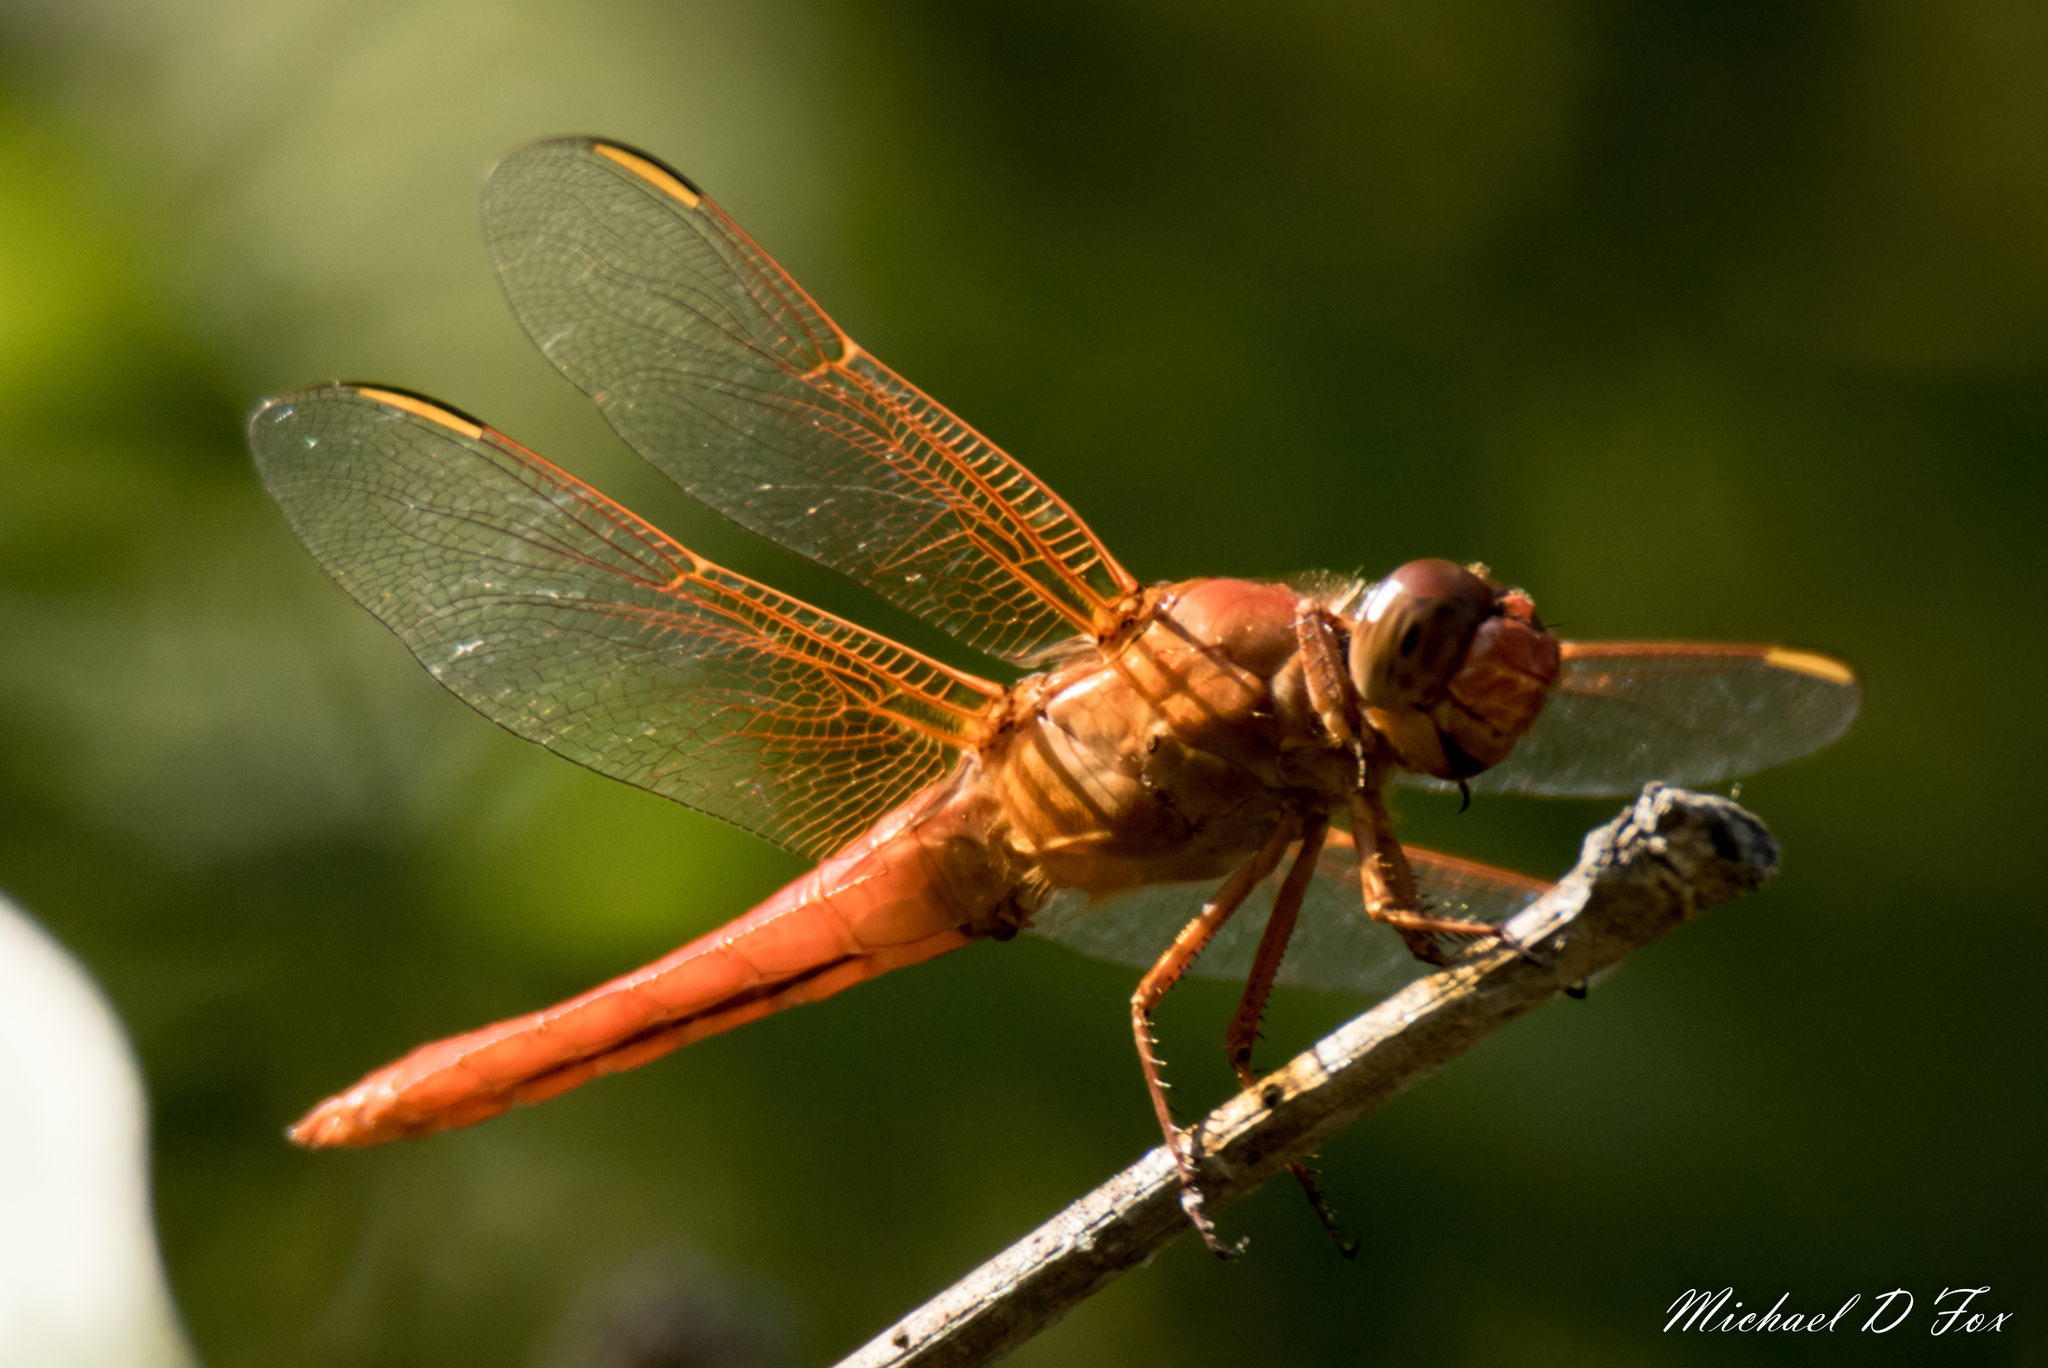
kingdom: Animalia
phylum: Arthropoda
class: Insecta
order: Odonata
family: Libellulidae
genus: Libellula
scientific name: Libellula croceipennis
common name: Neon skimmer
